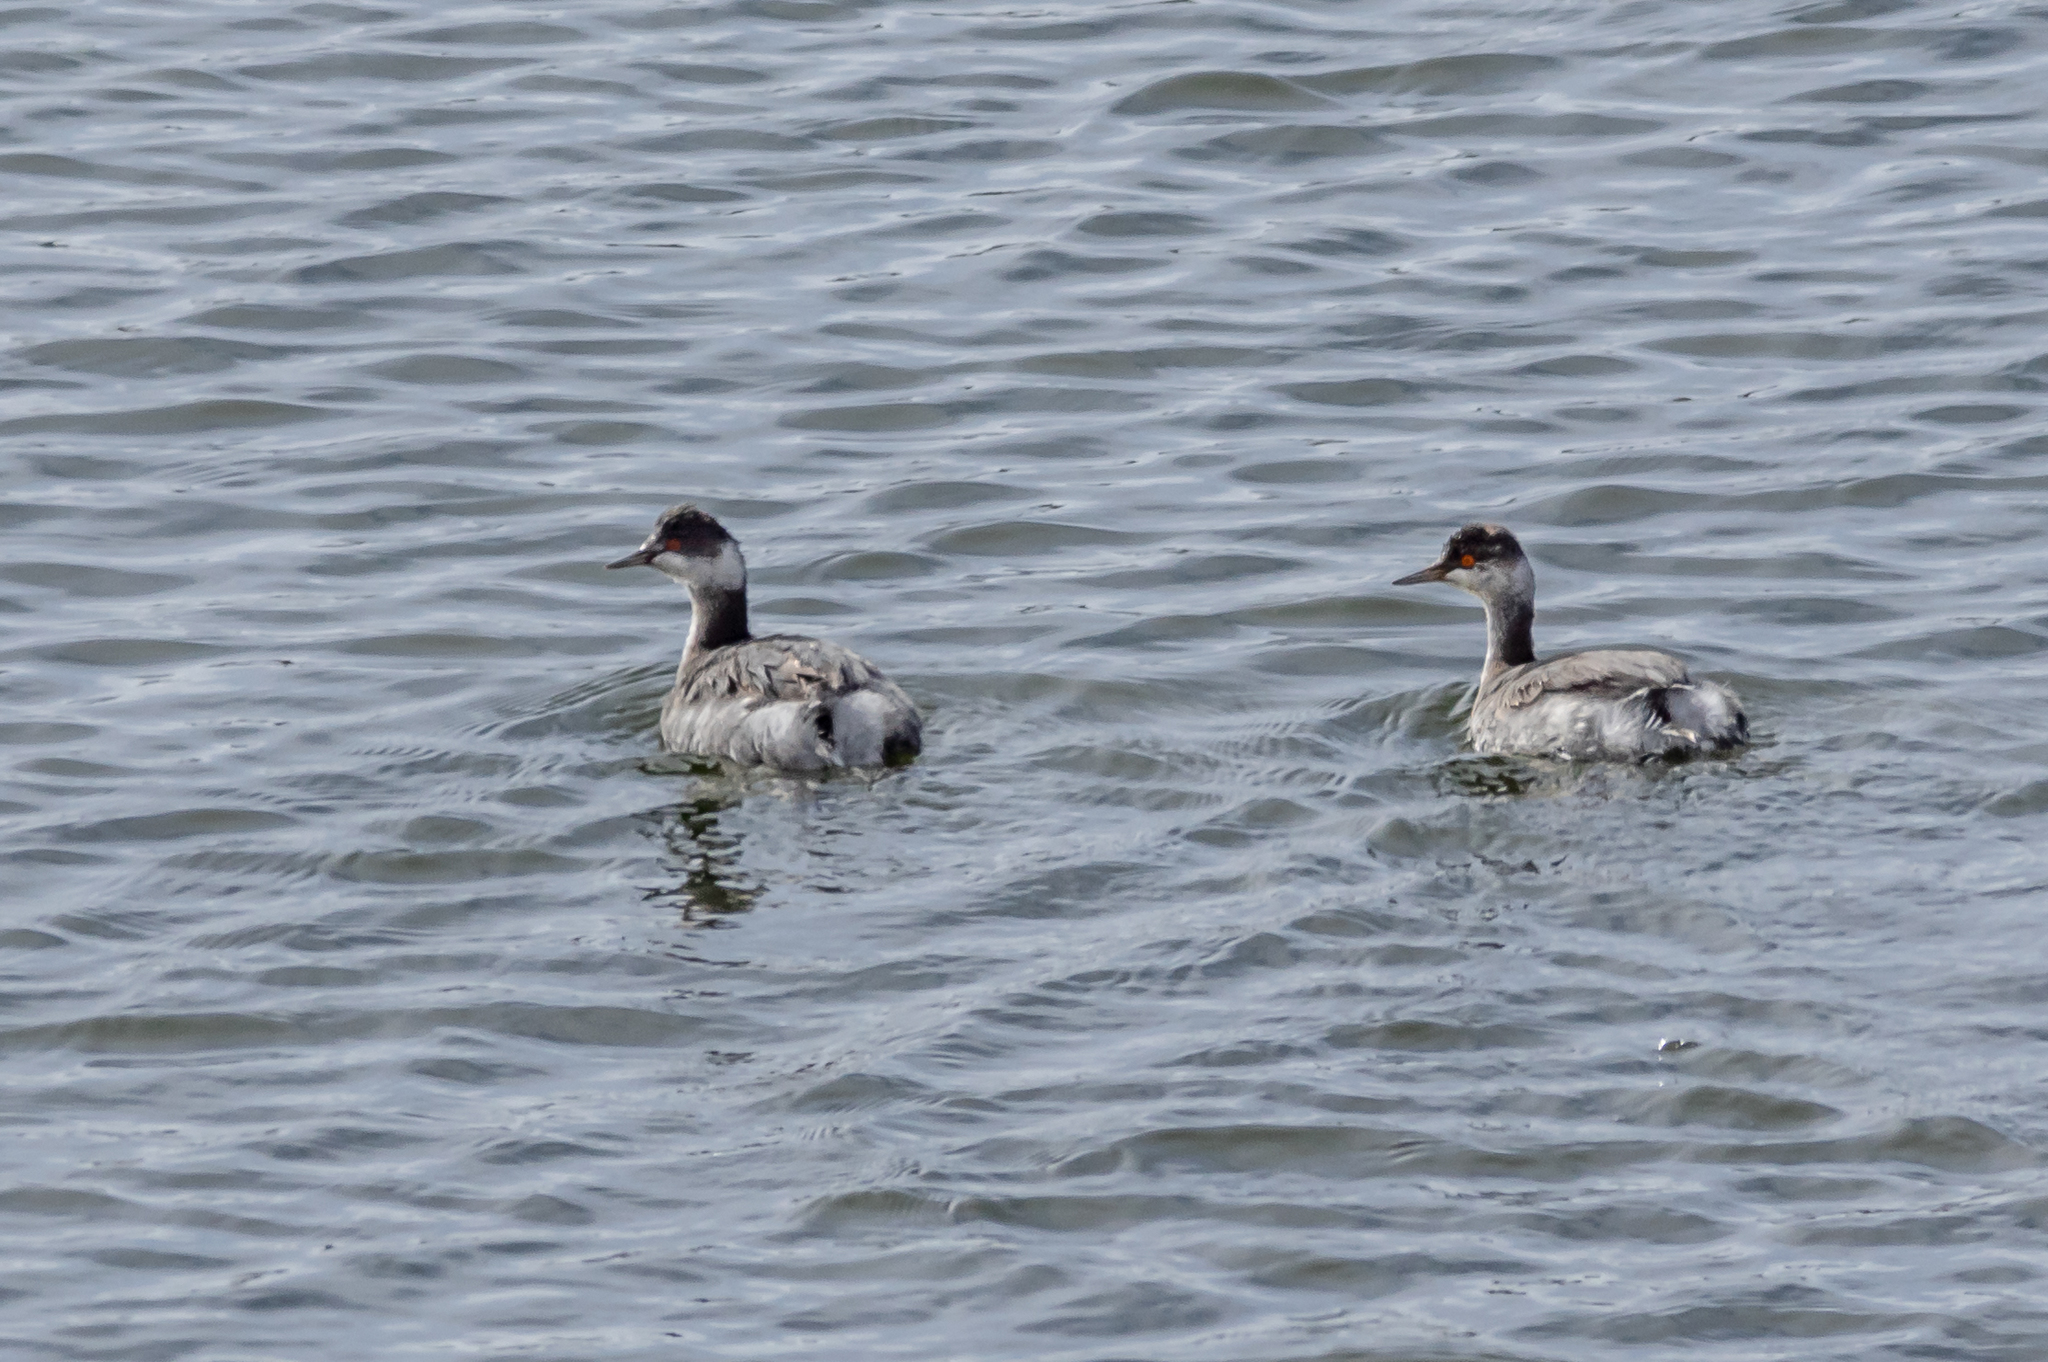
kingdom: Animalia
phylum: Chordata
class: Aves
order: Podicipediformes
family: Podicipedidae
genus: Podiceps
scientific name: Podiceps nigricollis
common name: Black-necked grebe
